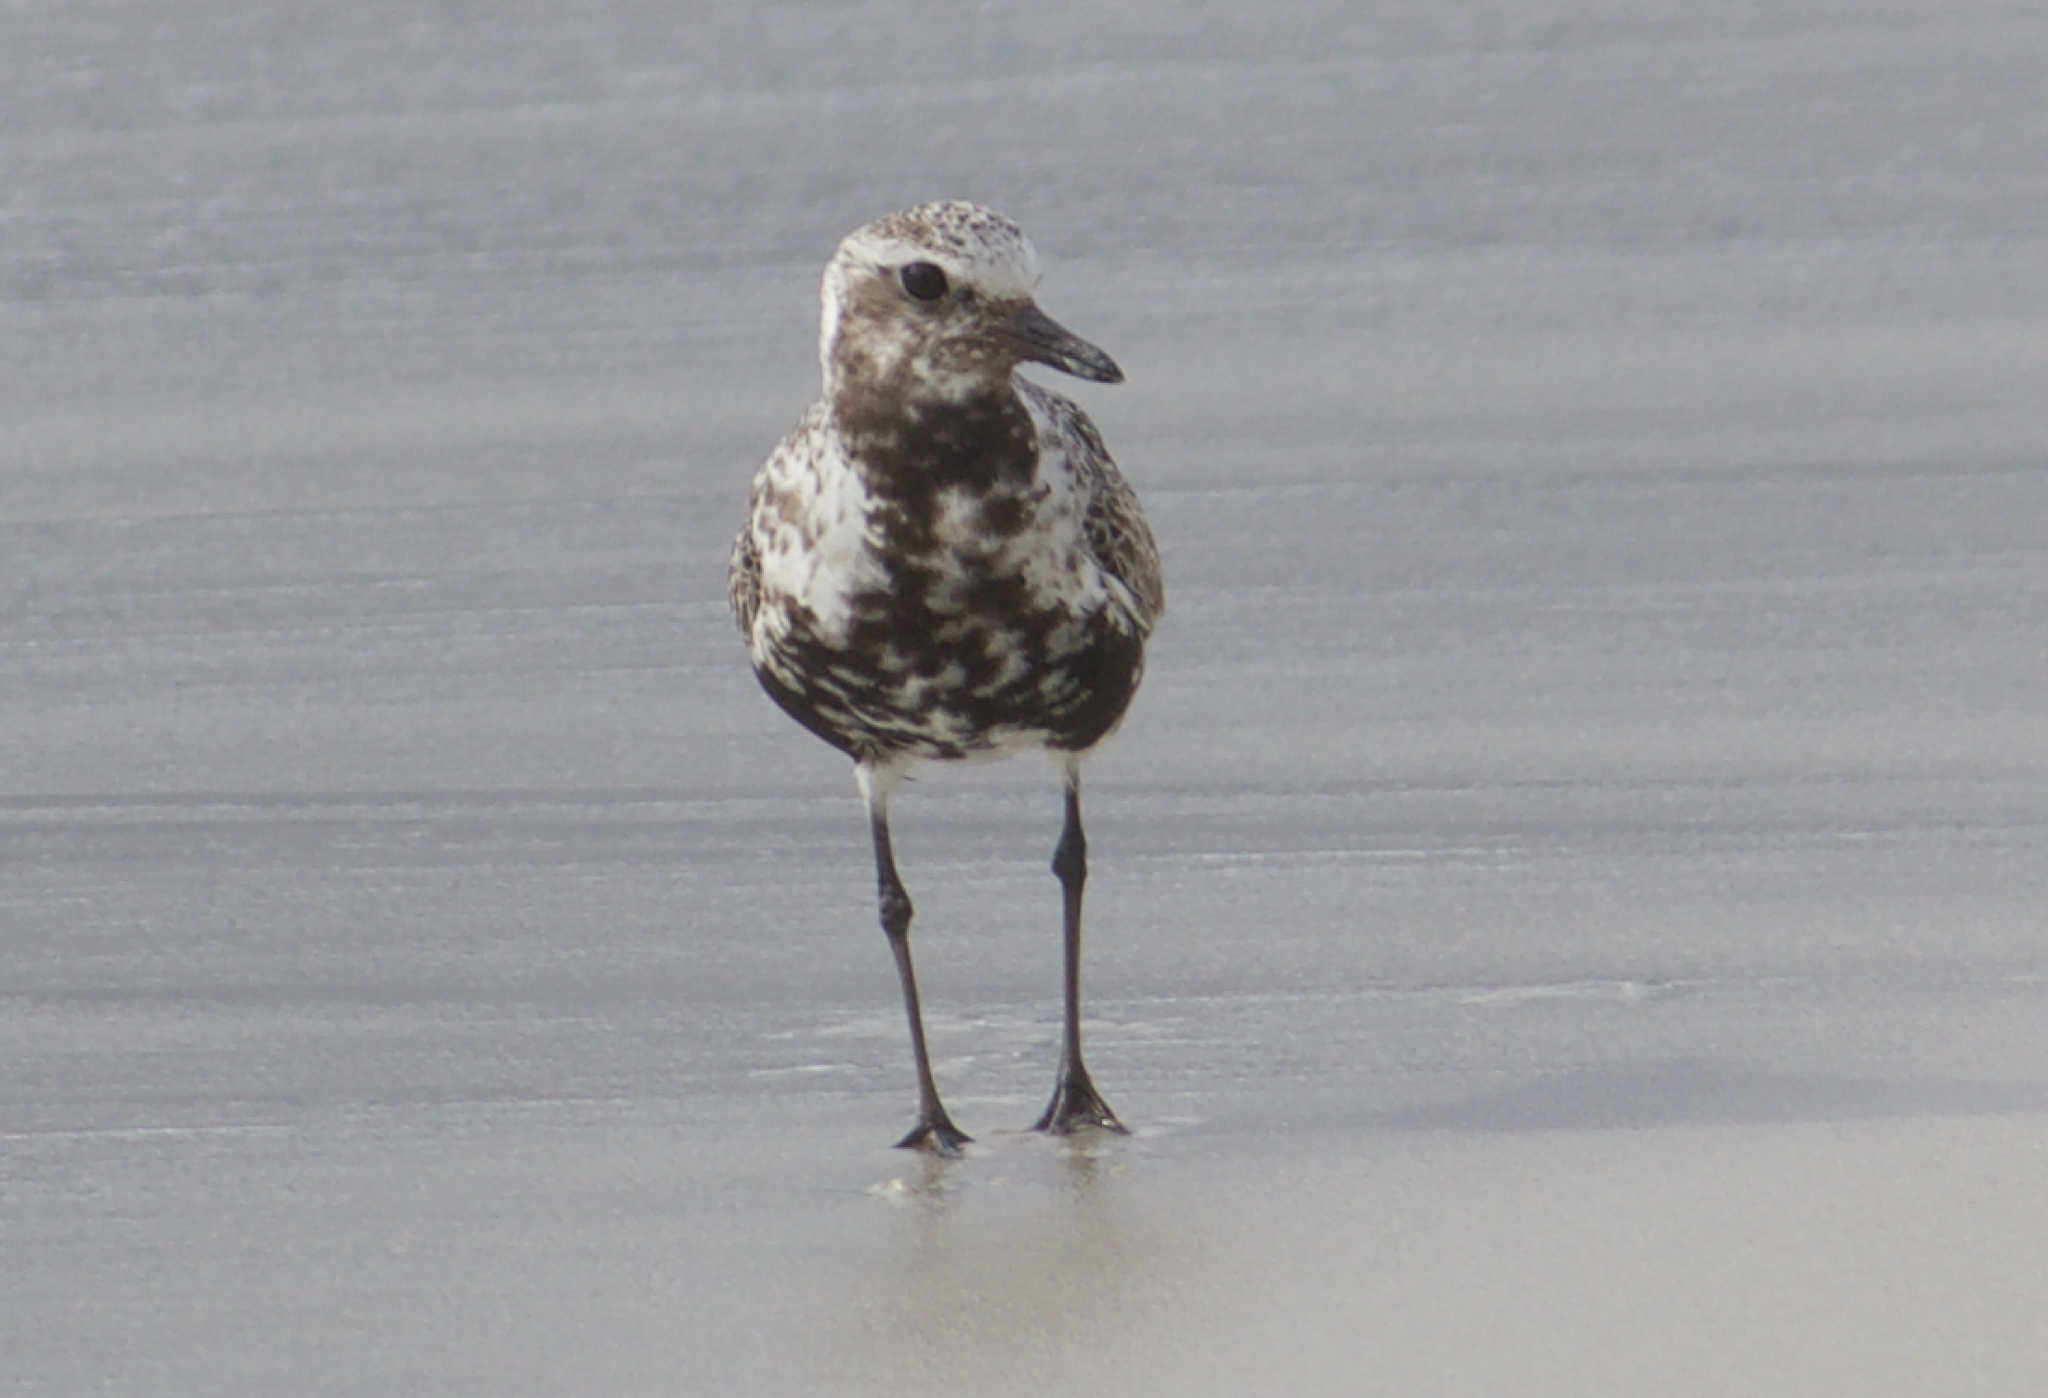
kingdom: Animalia
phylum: Chordata
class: Aves
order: Charadriiformes
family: Charadriidae
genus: Pluvialis
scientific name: Pluvialis squatarola
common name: Grey plover
